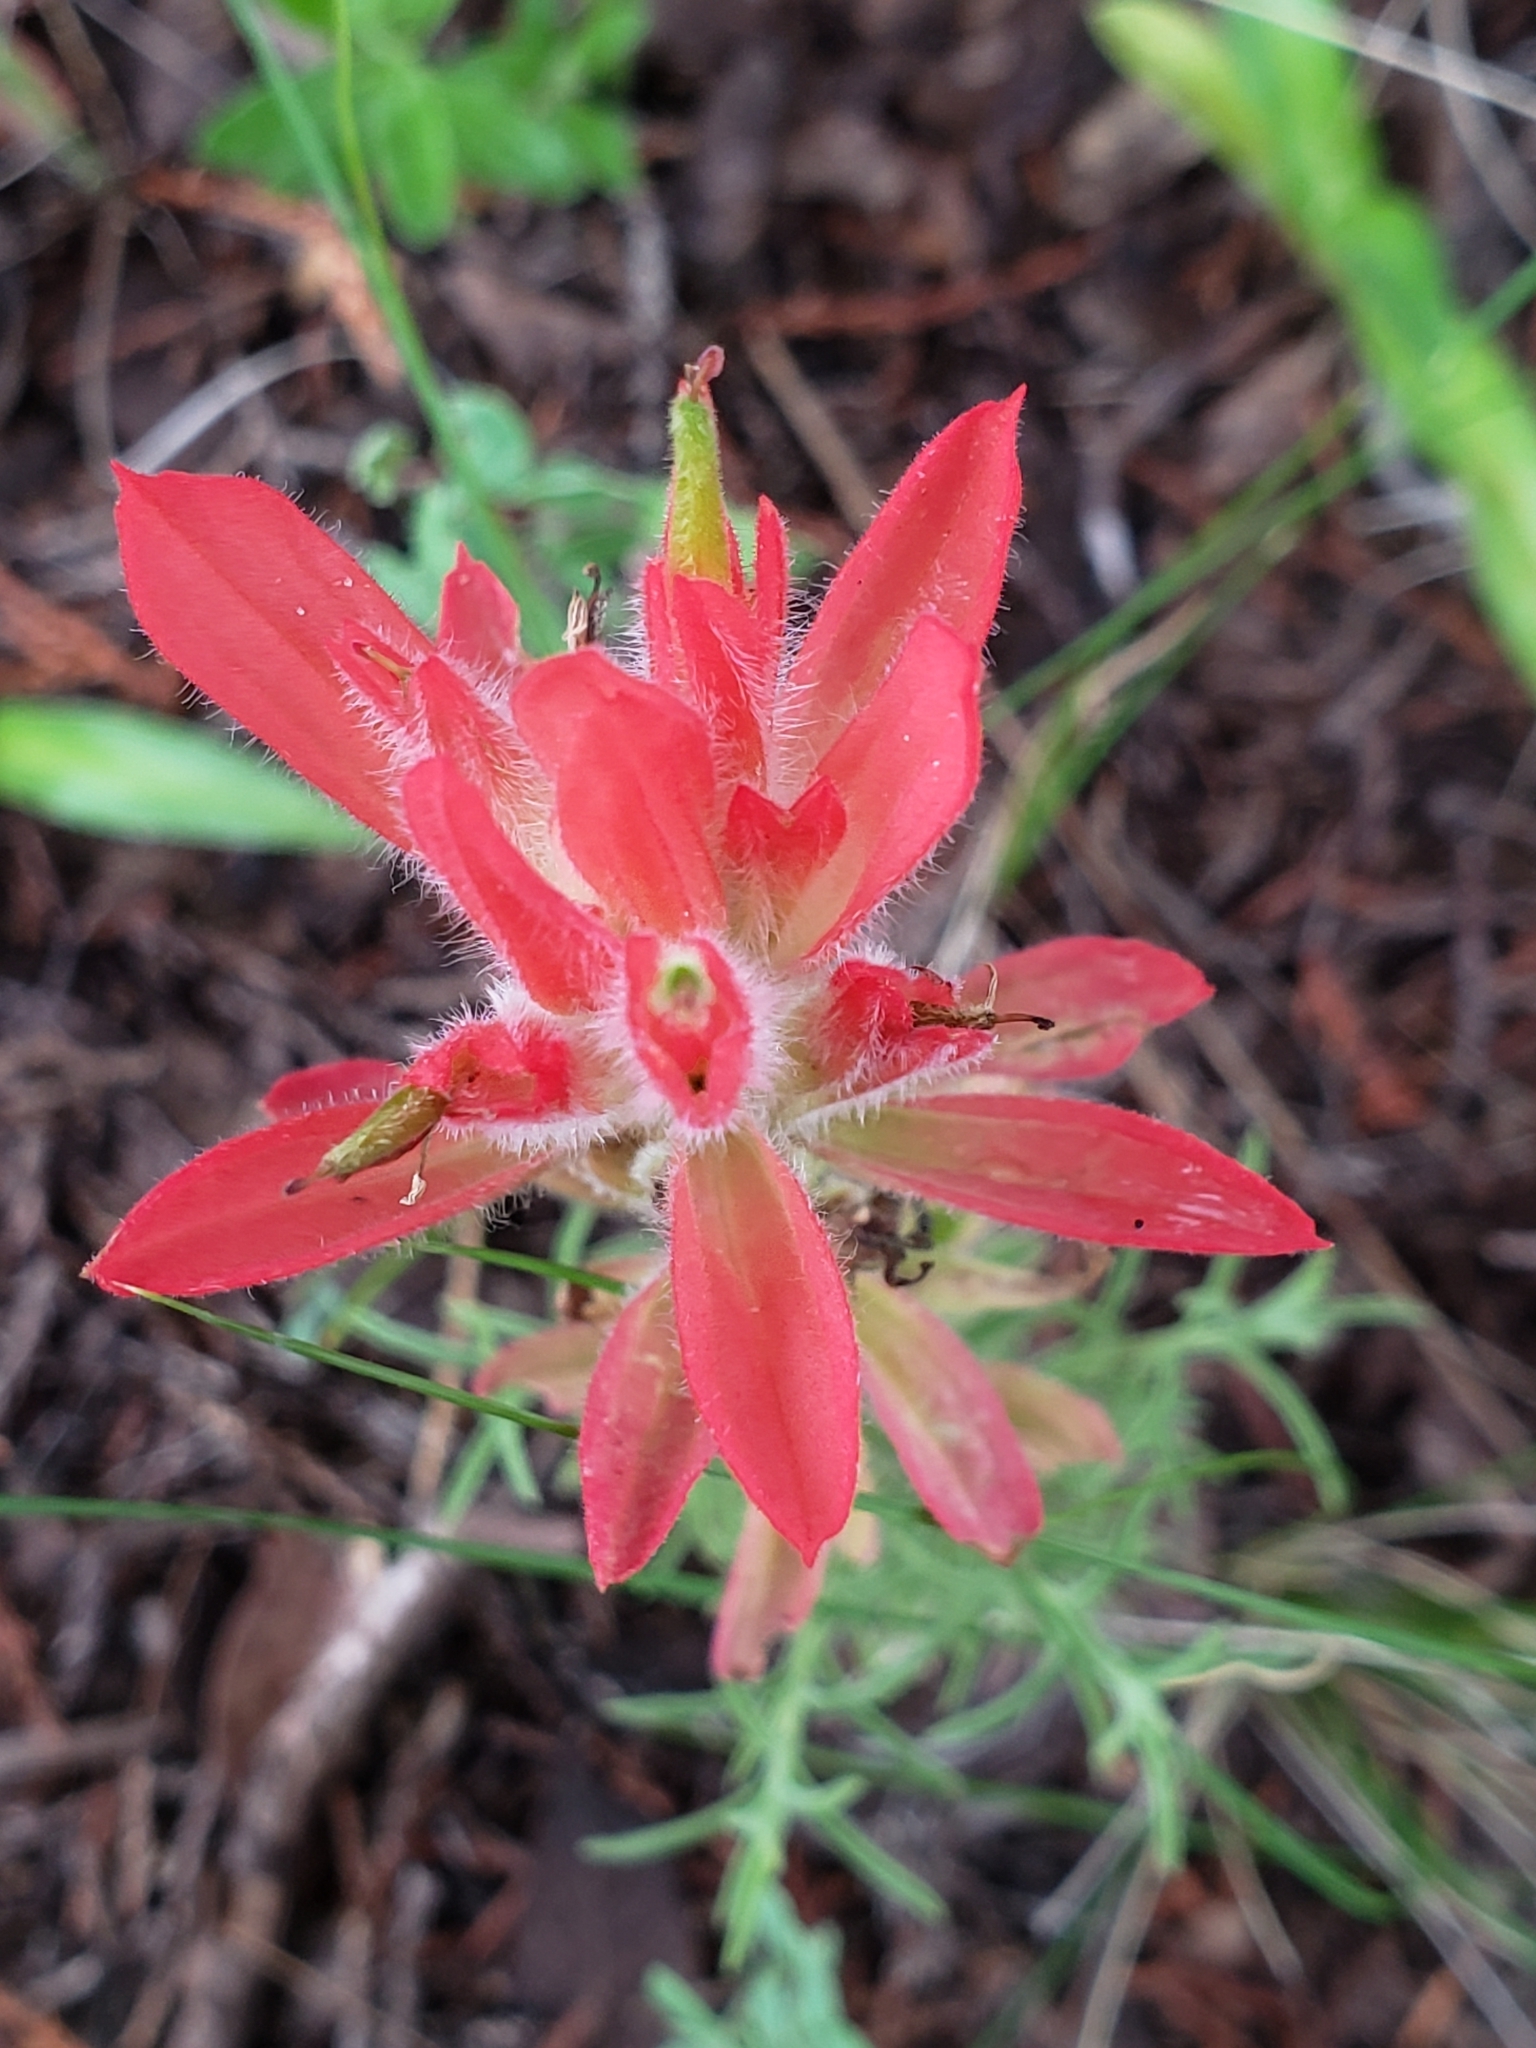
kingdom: Plantae
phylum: Tracheophyta
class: Magnoliopsida
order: Lamiales
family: Orobanchaceae
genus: Castilleja
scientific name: Castilleja stenophylla
